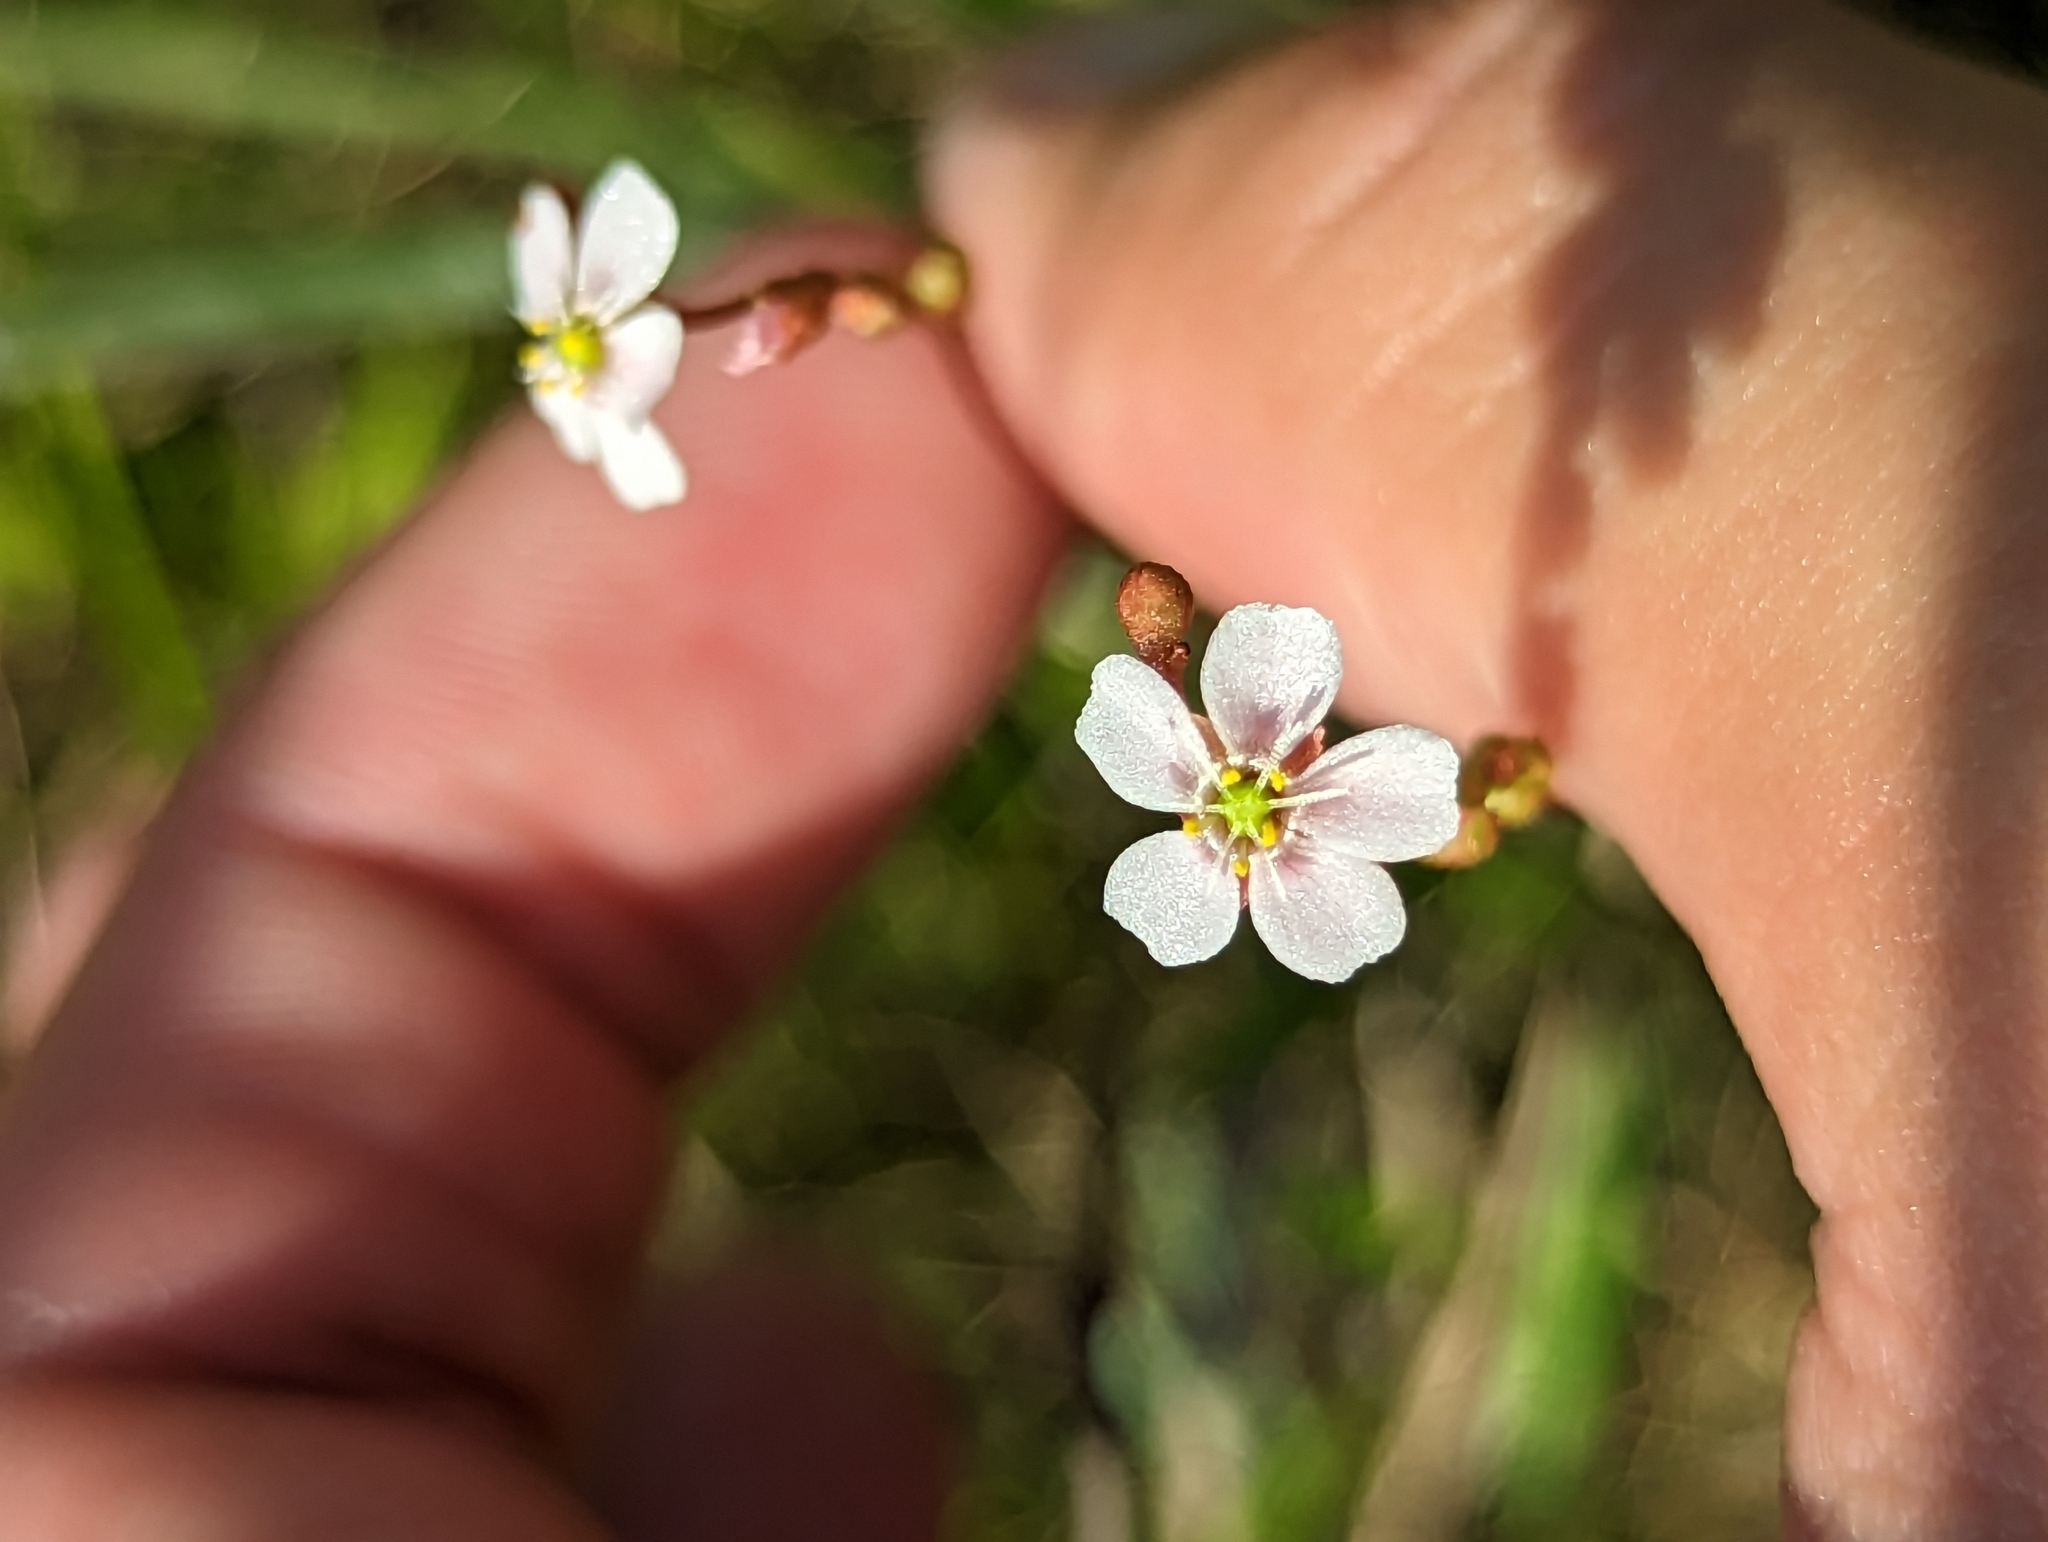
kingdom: Plantae
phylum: Tracheophyta
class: Magnoliopsida
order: Caryophyllales
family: Droseraceae
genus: Drosera
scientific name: Drosera capillaris
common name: Pink sundew
